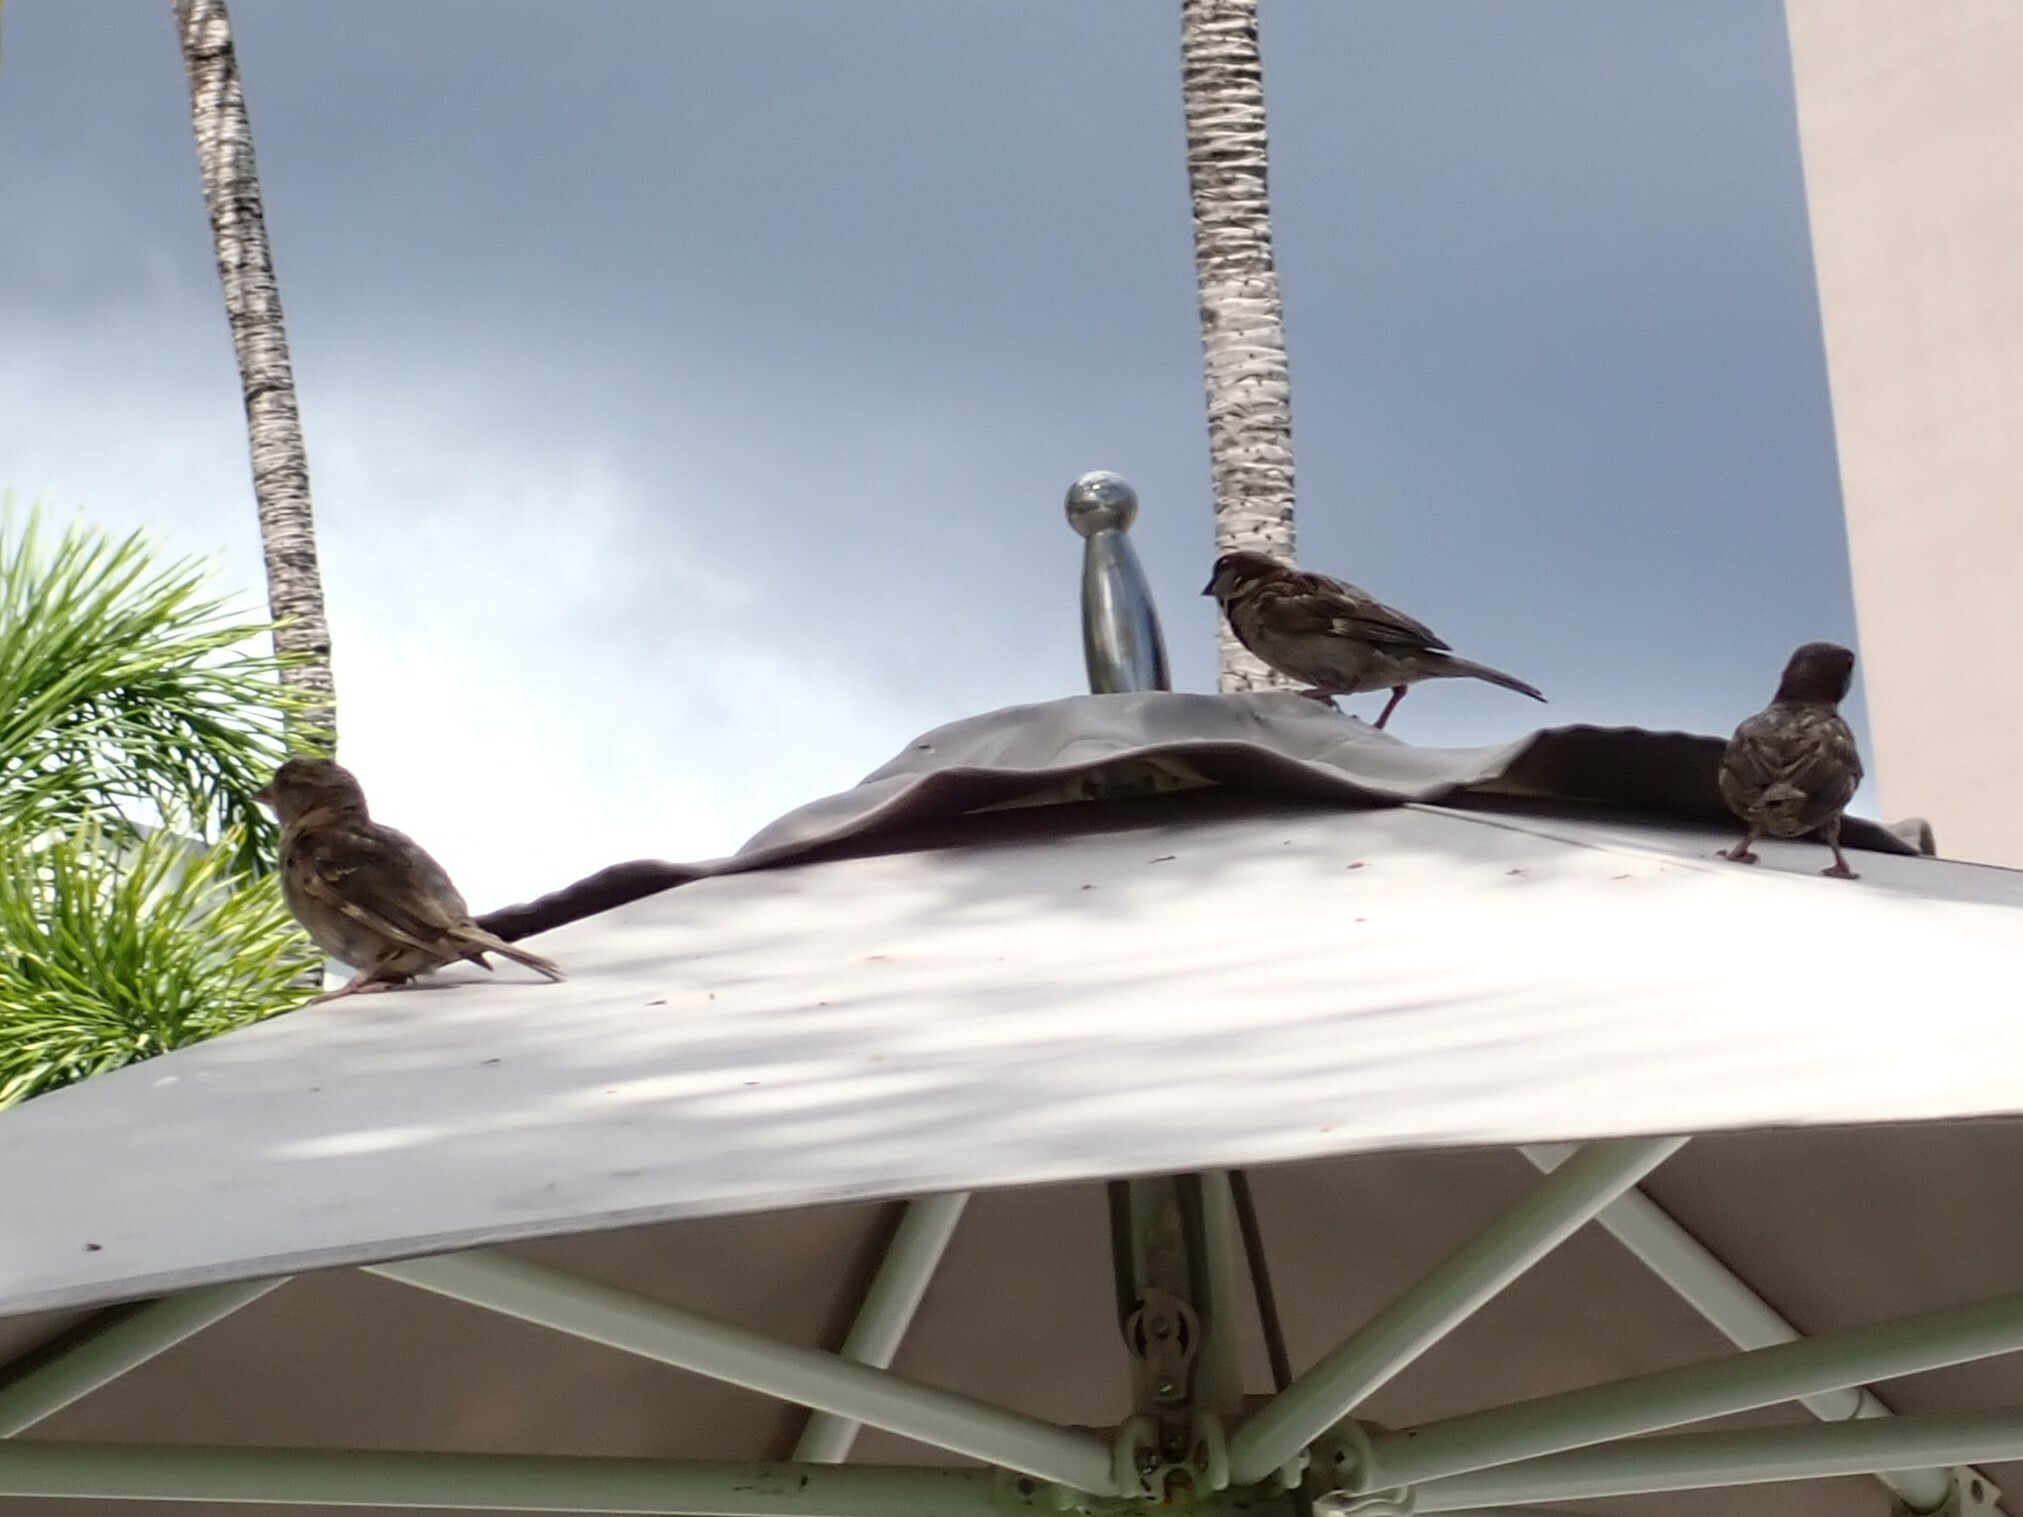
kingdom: Animalia
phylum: Chordata
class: Aves
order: Passeriformes
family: Passeridae
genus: Passer
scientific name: Passer domesticus
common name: House sparrow
